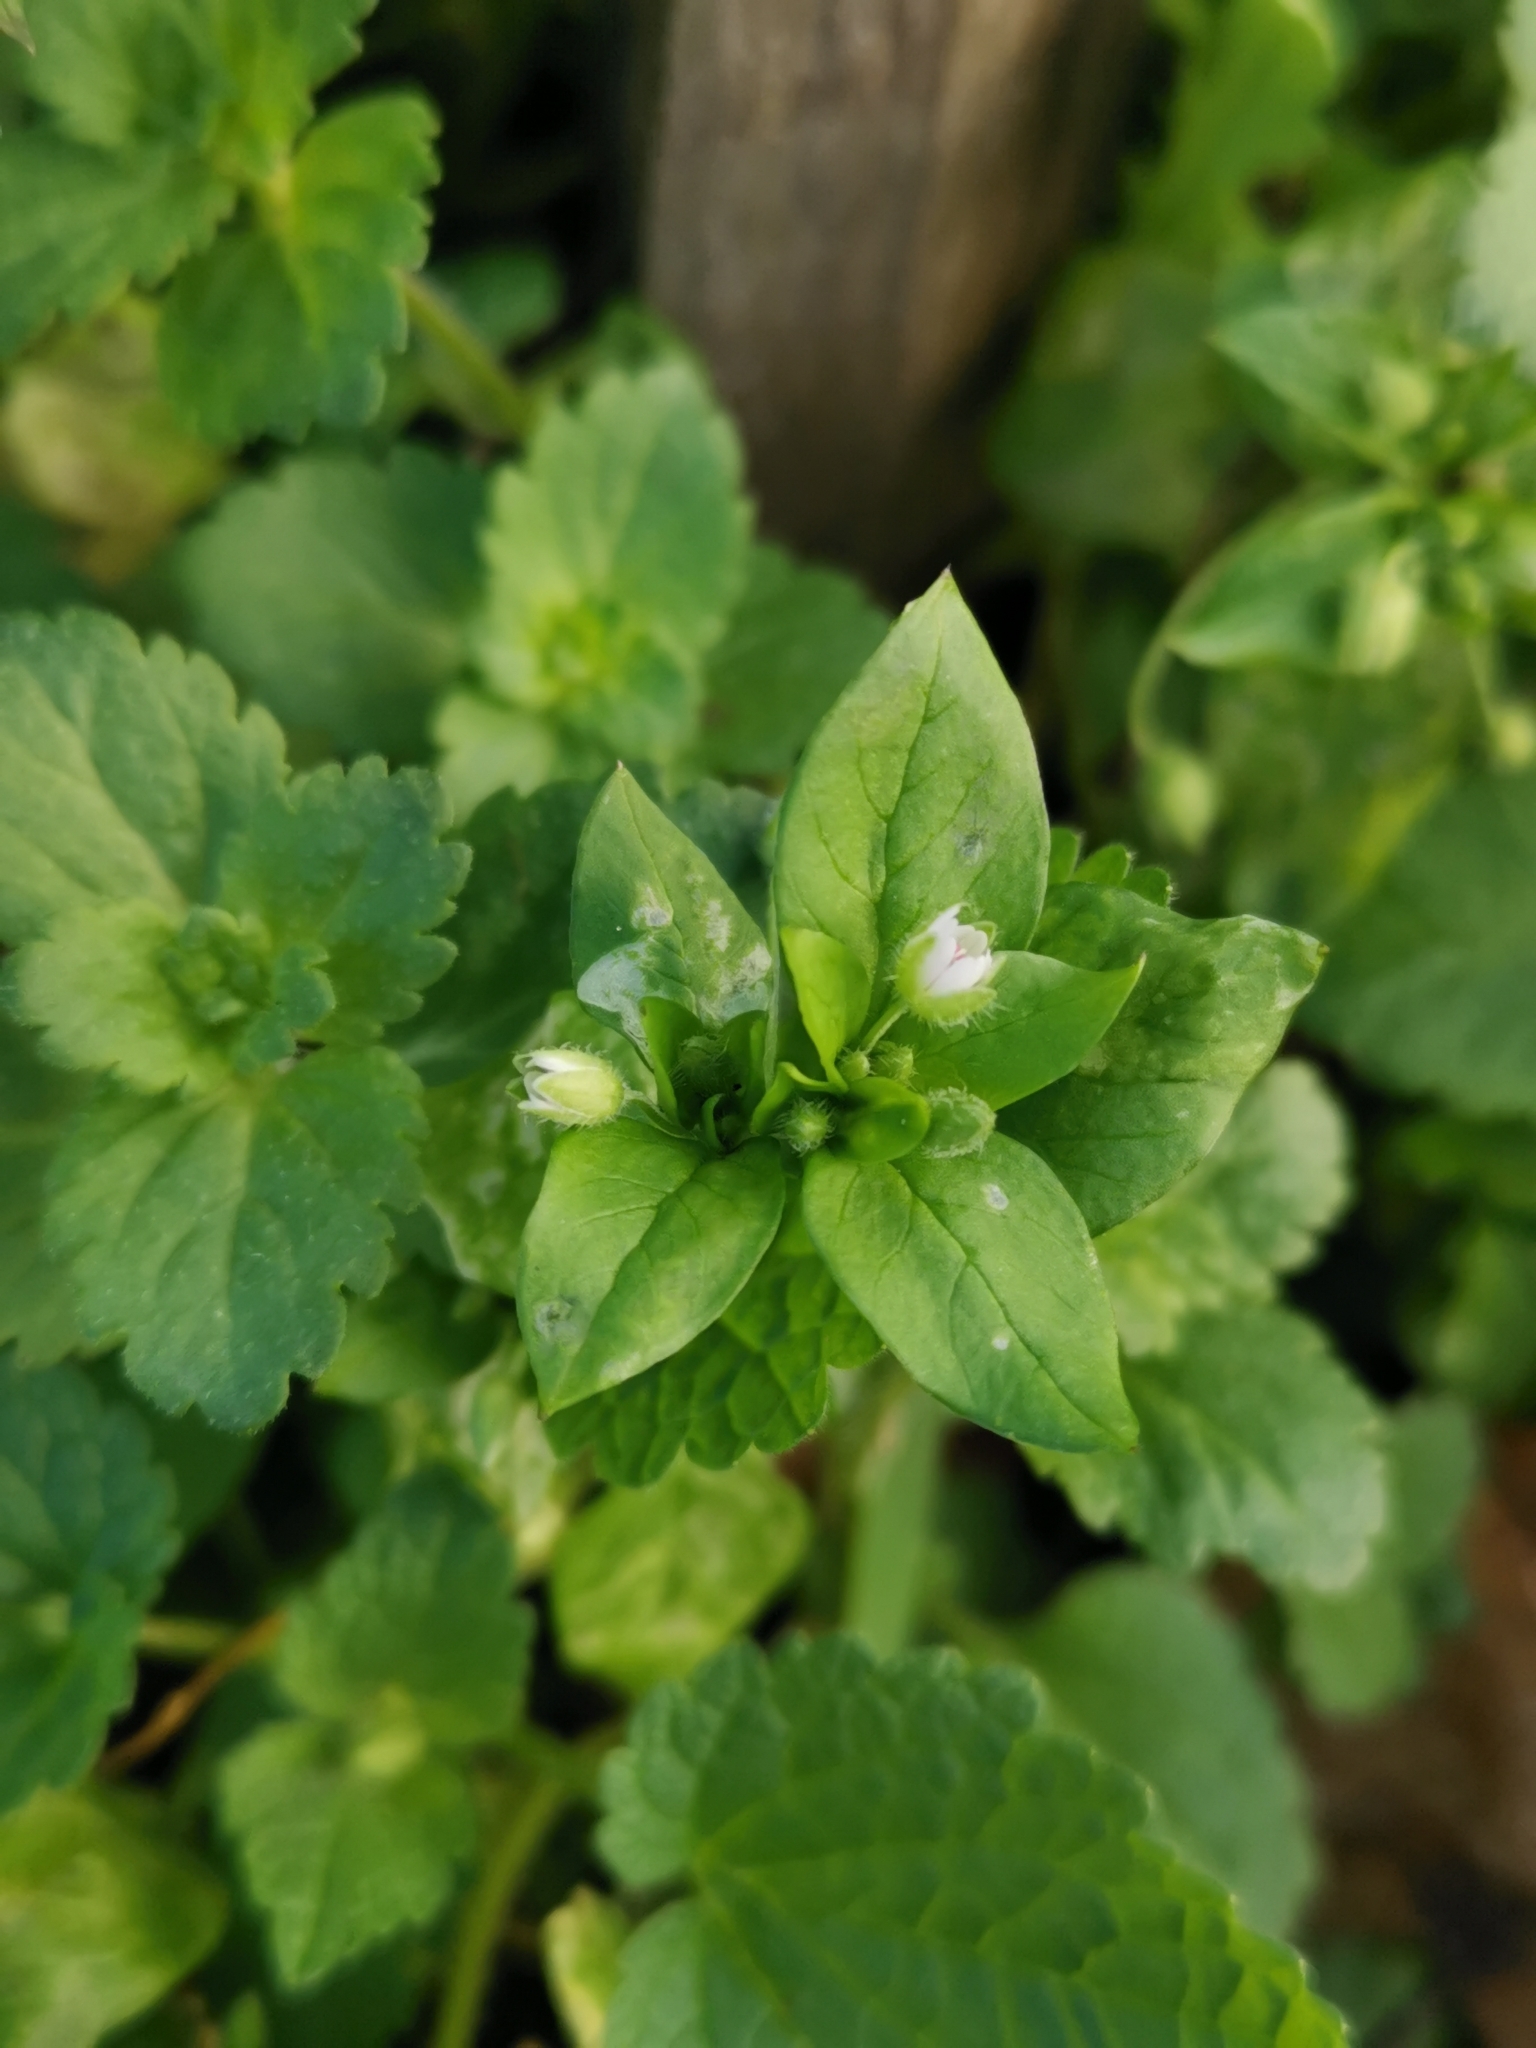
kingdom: Plantae
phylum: Tracheophyta
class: Magnoliopsida
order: Caryophyllales
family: Caryophyllaceae
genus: Stellaria
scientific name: Stellaria media
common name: Common chickweed
